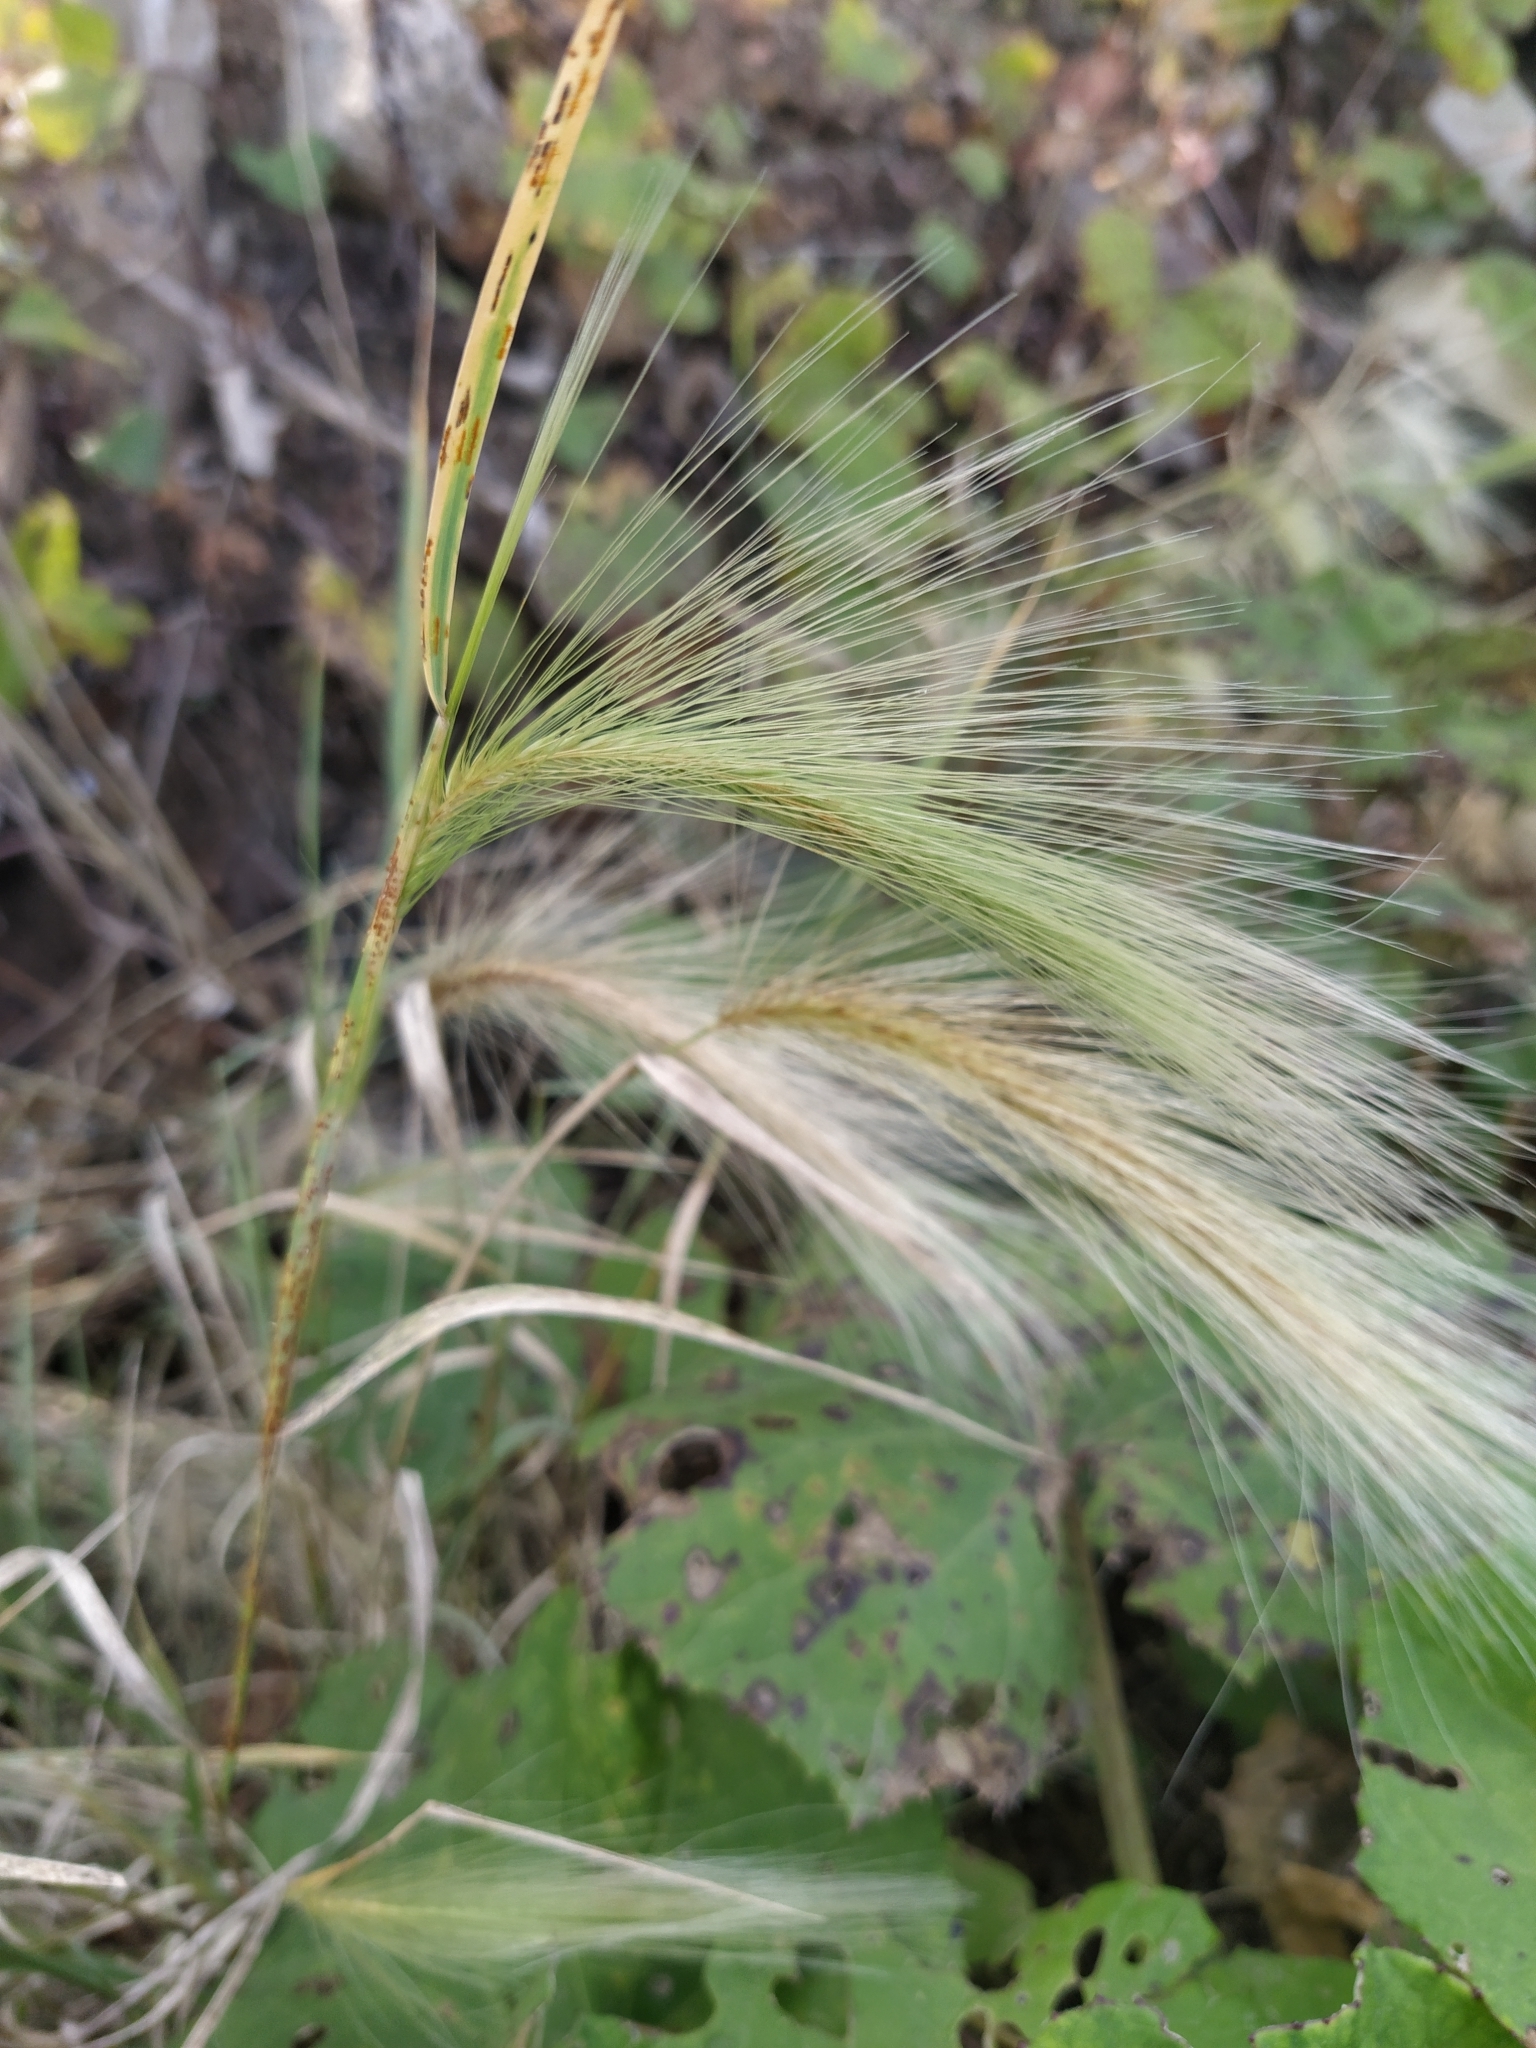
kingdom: Plantae
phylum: Tracheophyta
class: Liliopsida
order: Poales
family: Poaceae
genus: Hordeum
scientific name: Hordeum jubatum
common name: Foxtail barley
